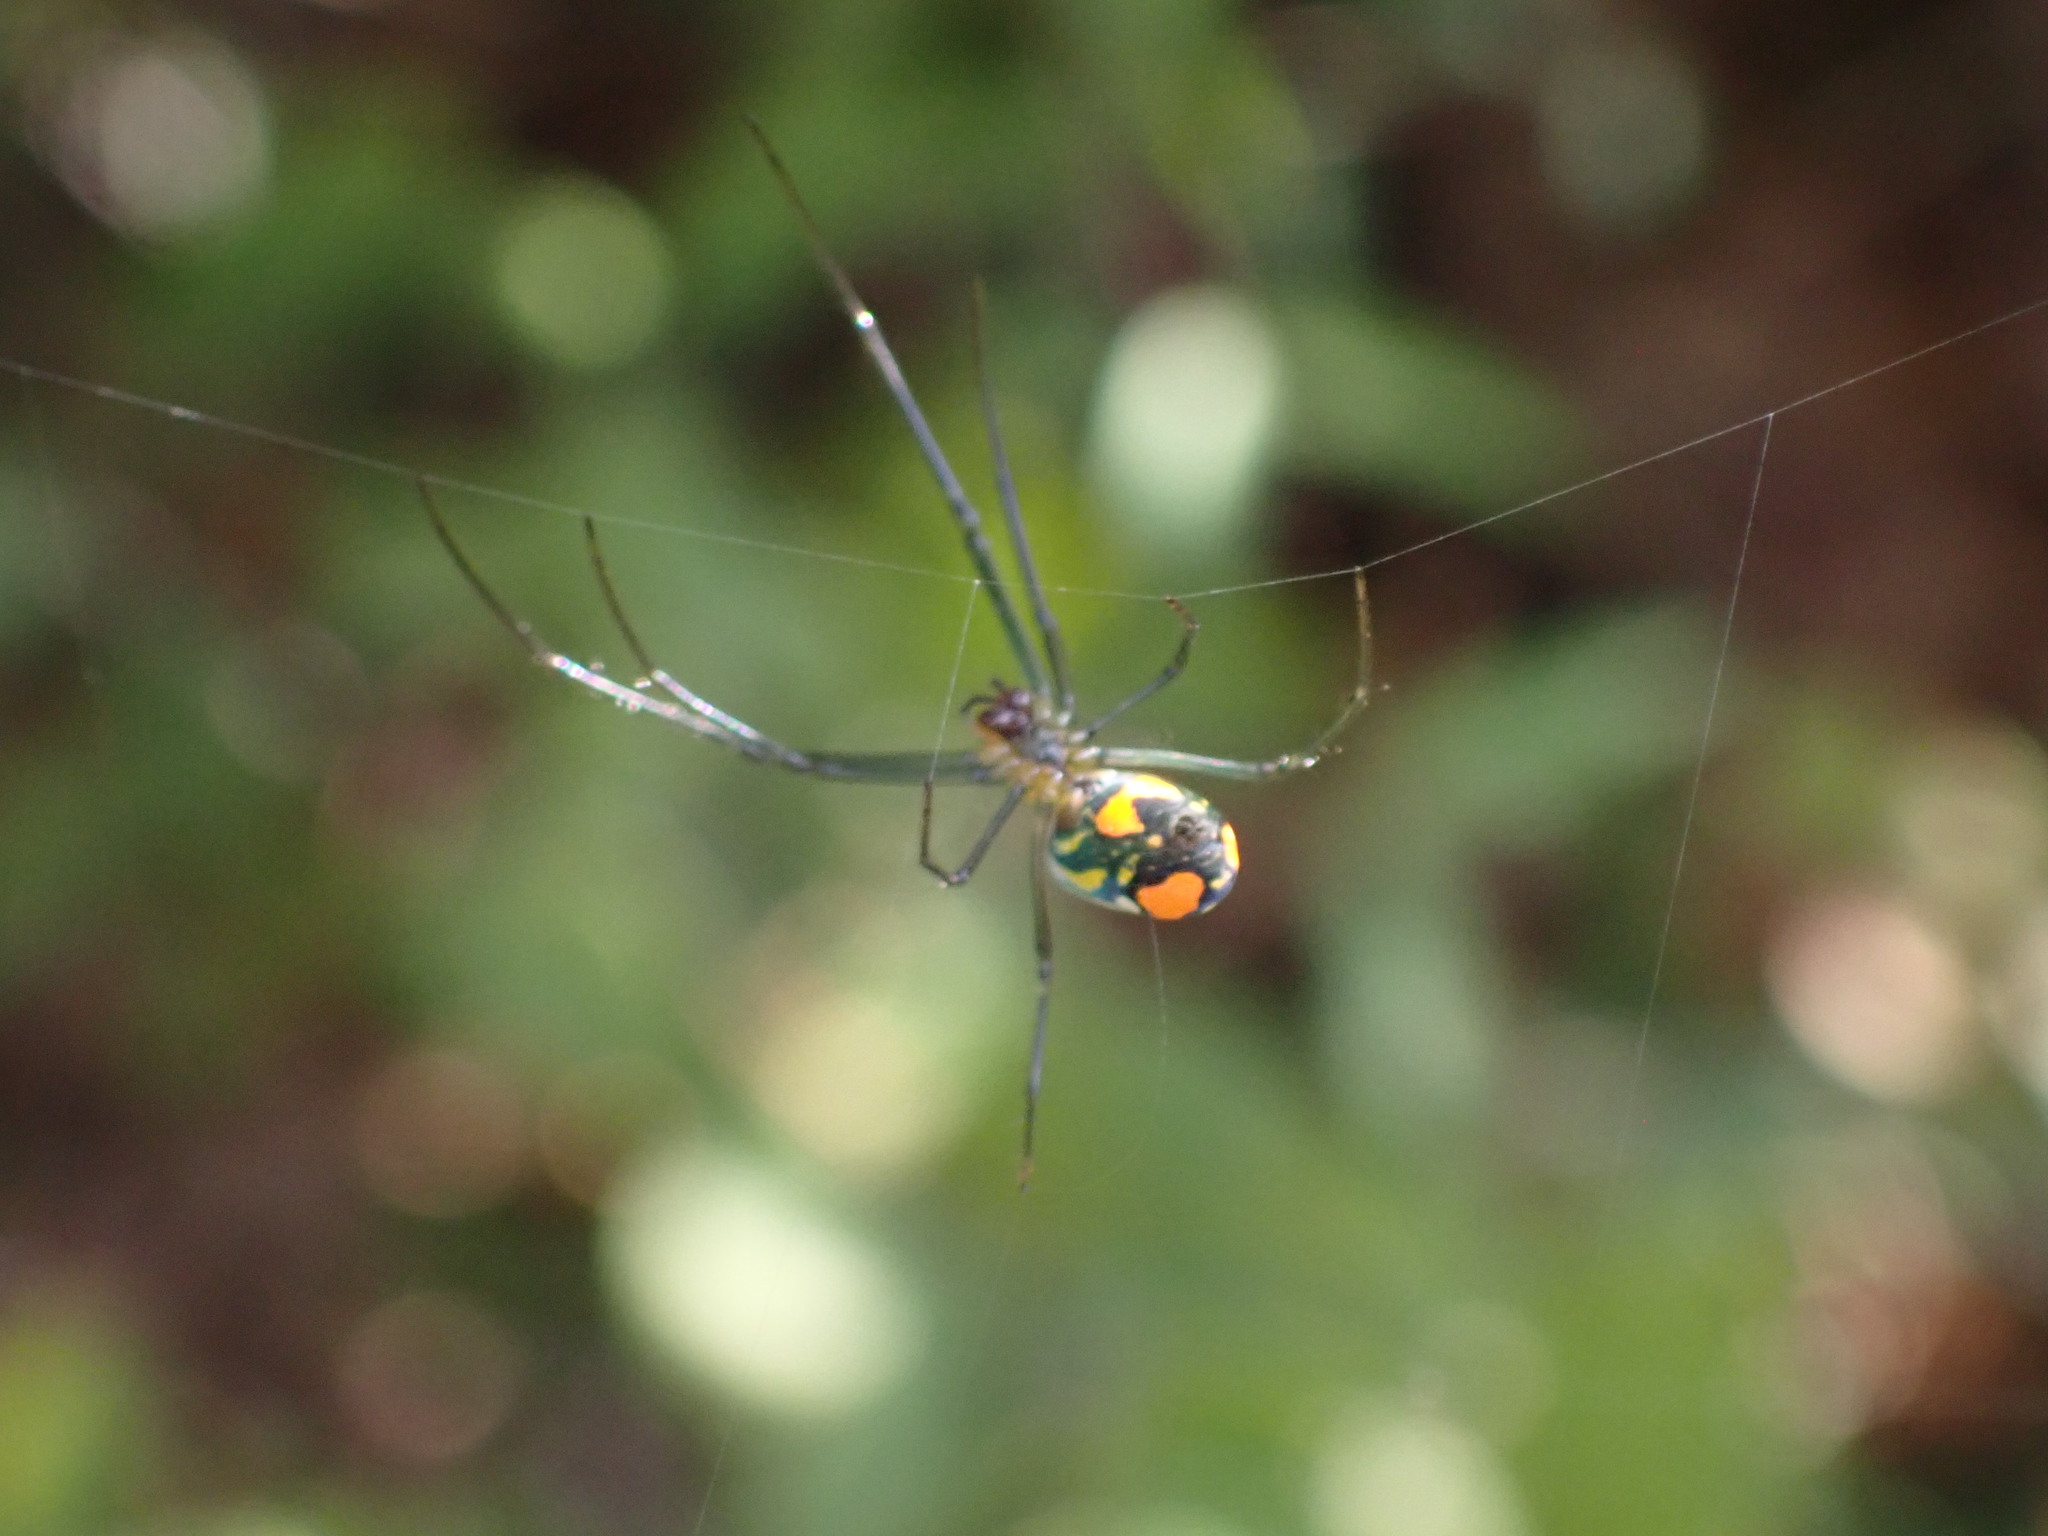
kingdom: Animalia
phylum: Arthropoda
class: Arachnida
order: Araneae
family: Tetragnathidae
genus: Leucauge
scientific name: Leucauge argyrobapta
